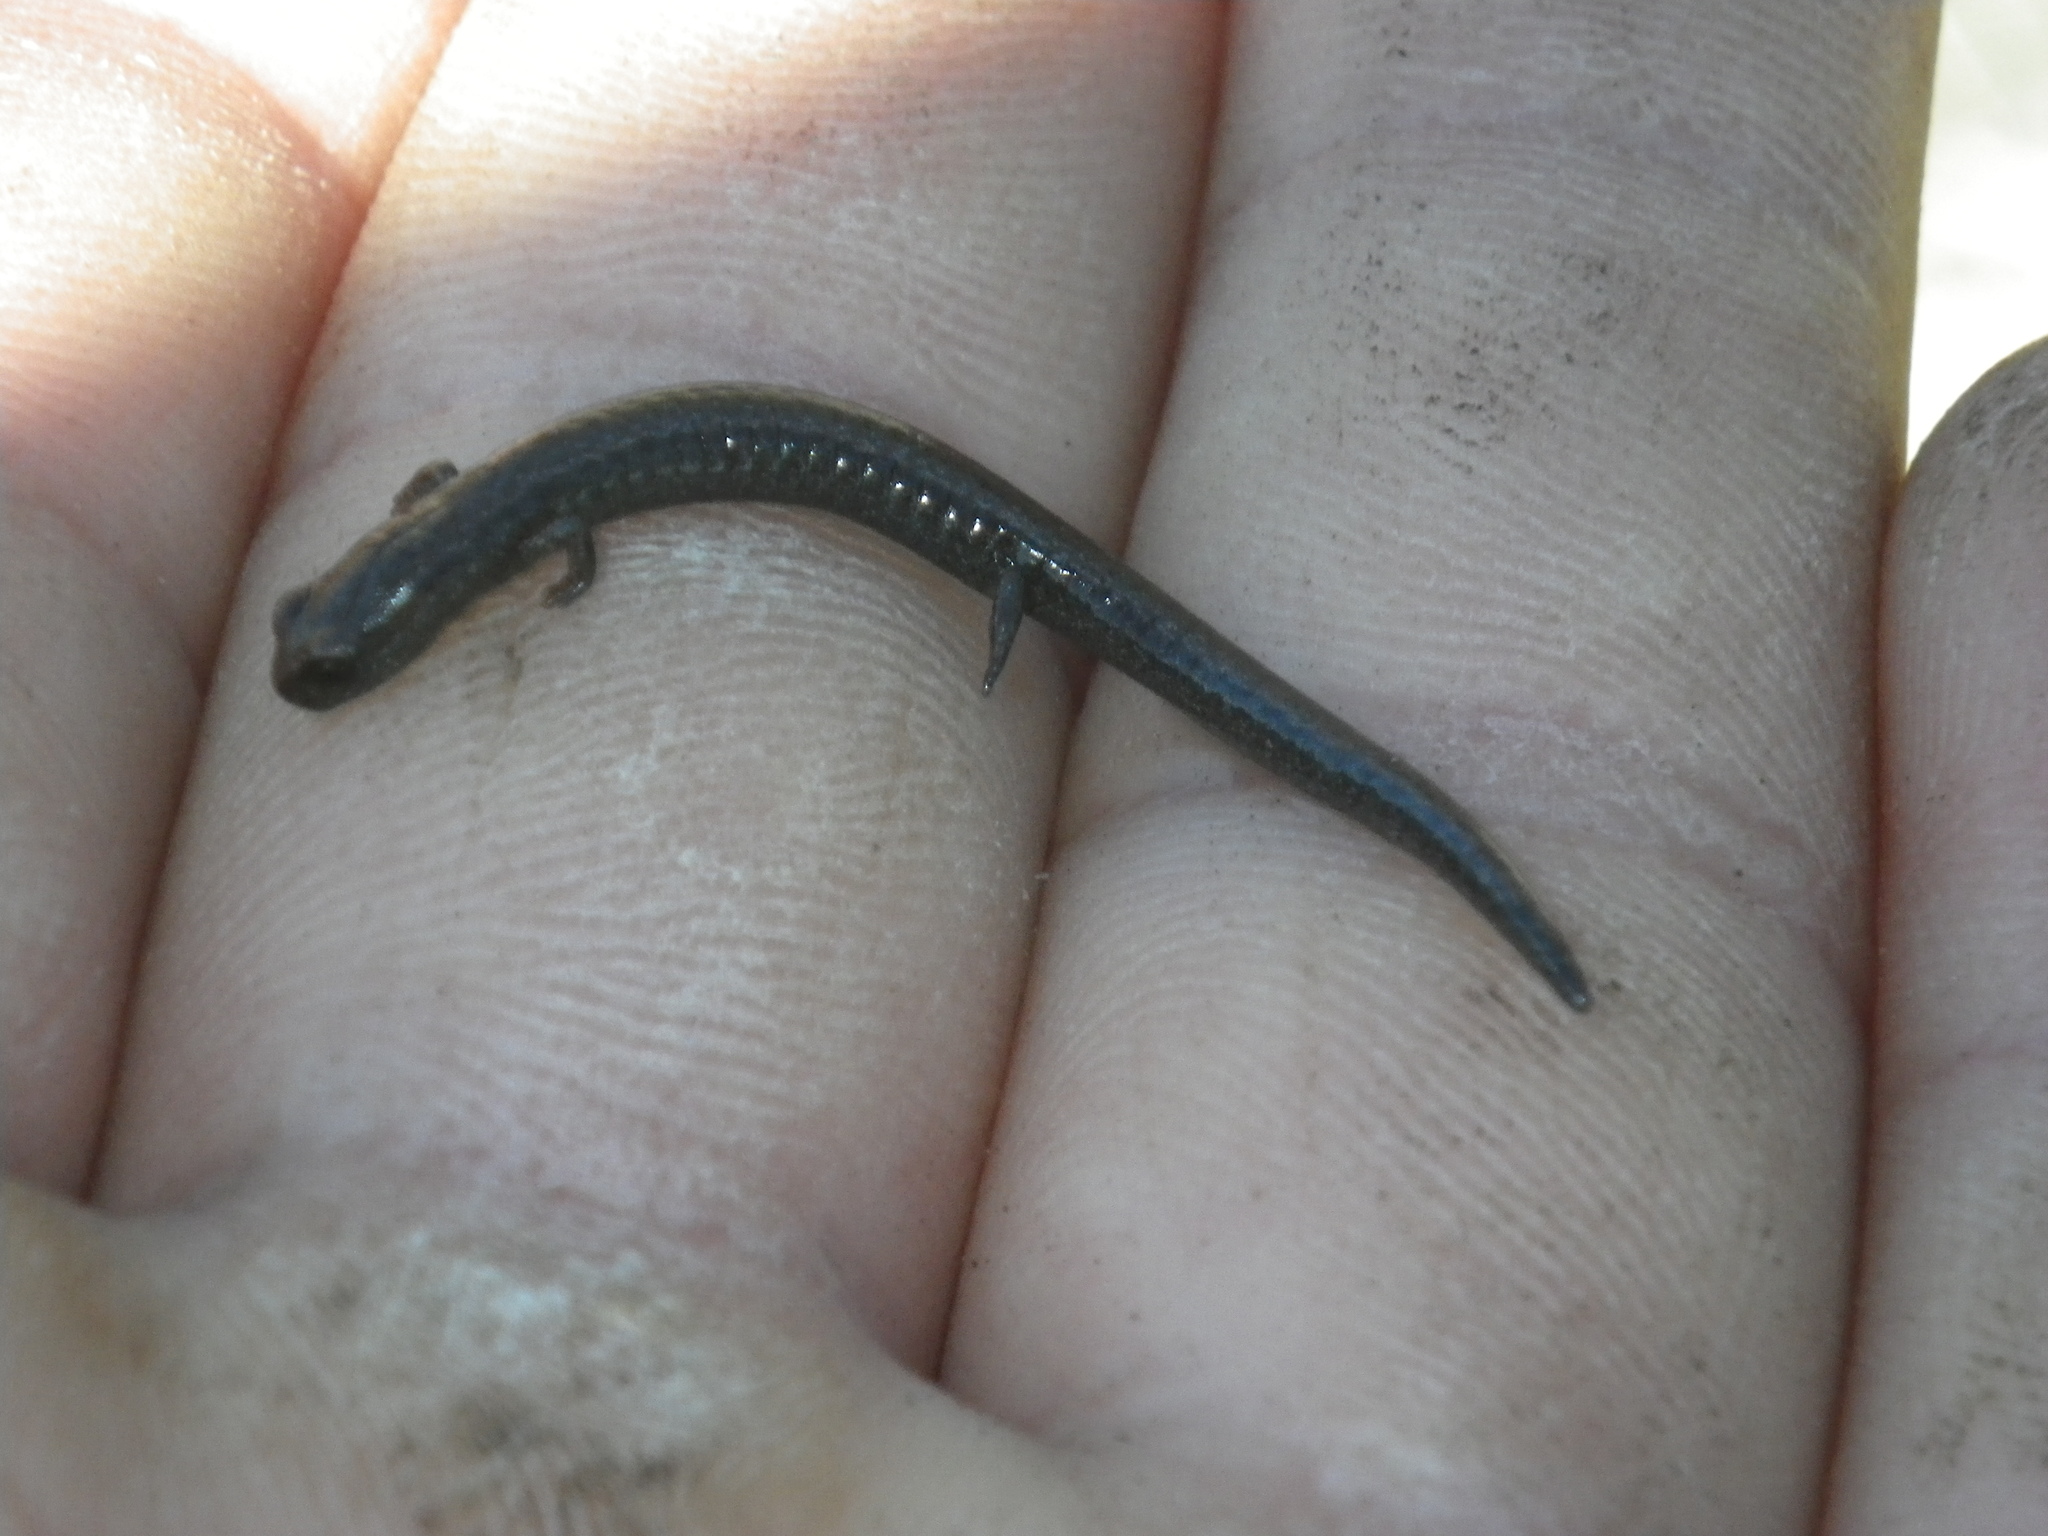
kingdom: Animalia
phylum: Chordata
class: Amphibia
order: Caudata
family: Plethodontidae
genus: Batrachoseps
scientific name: Batrachoseps attenuatus
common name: California slender salamander
